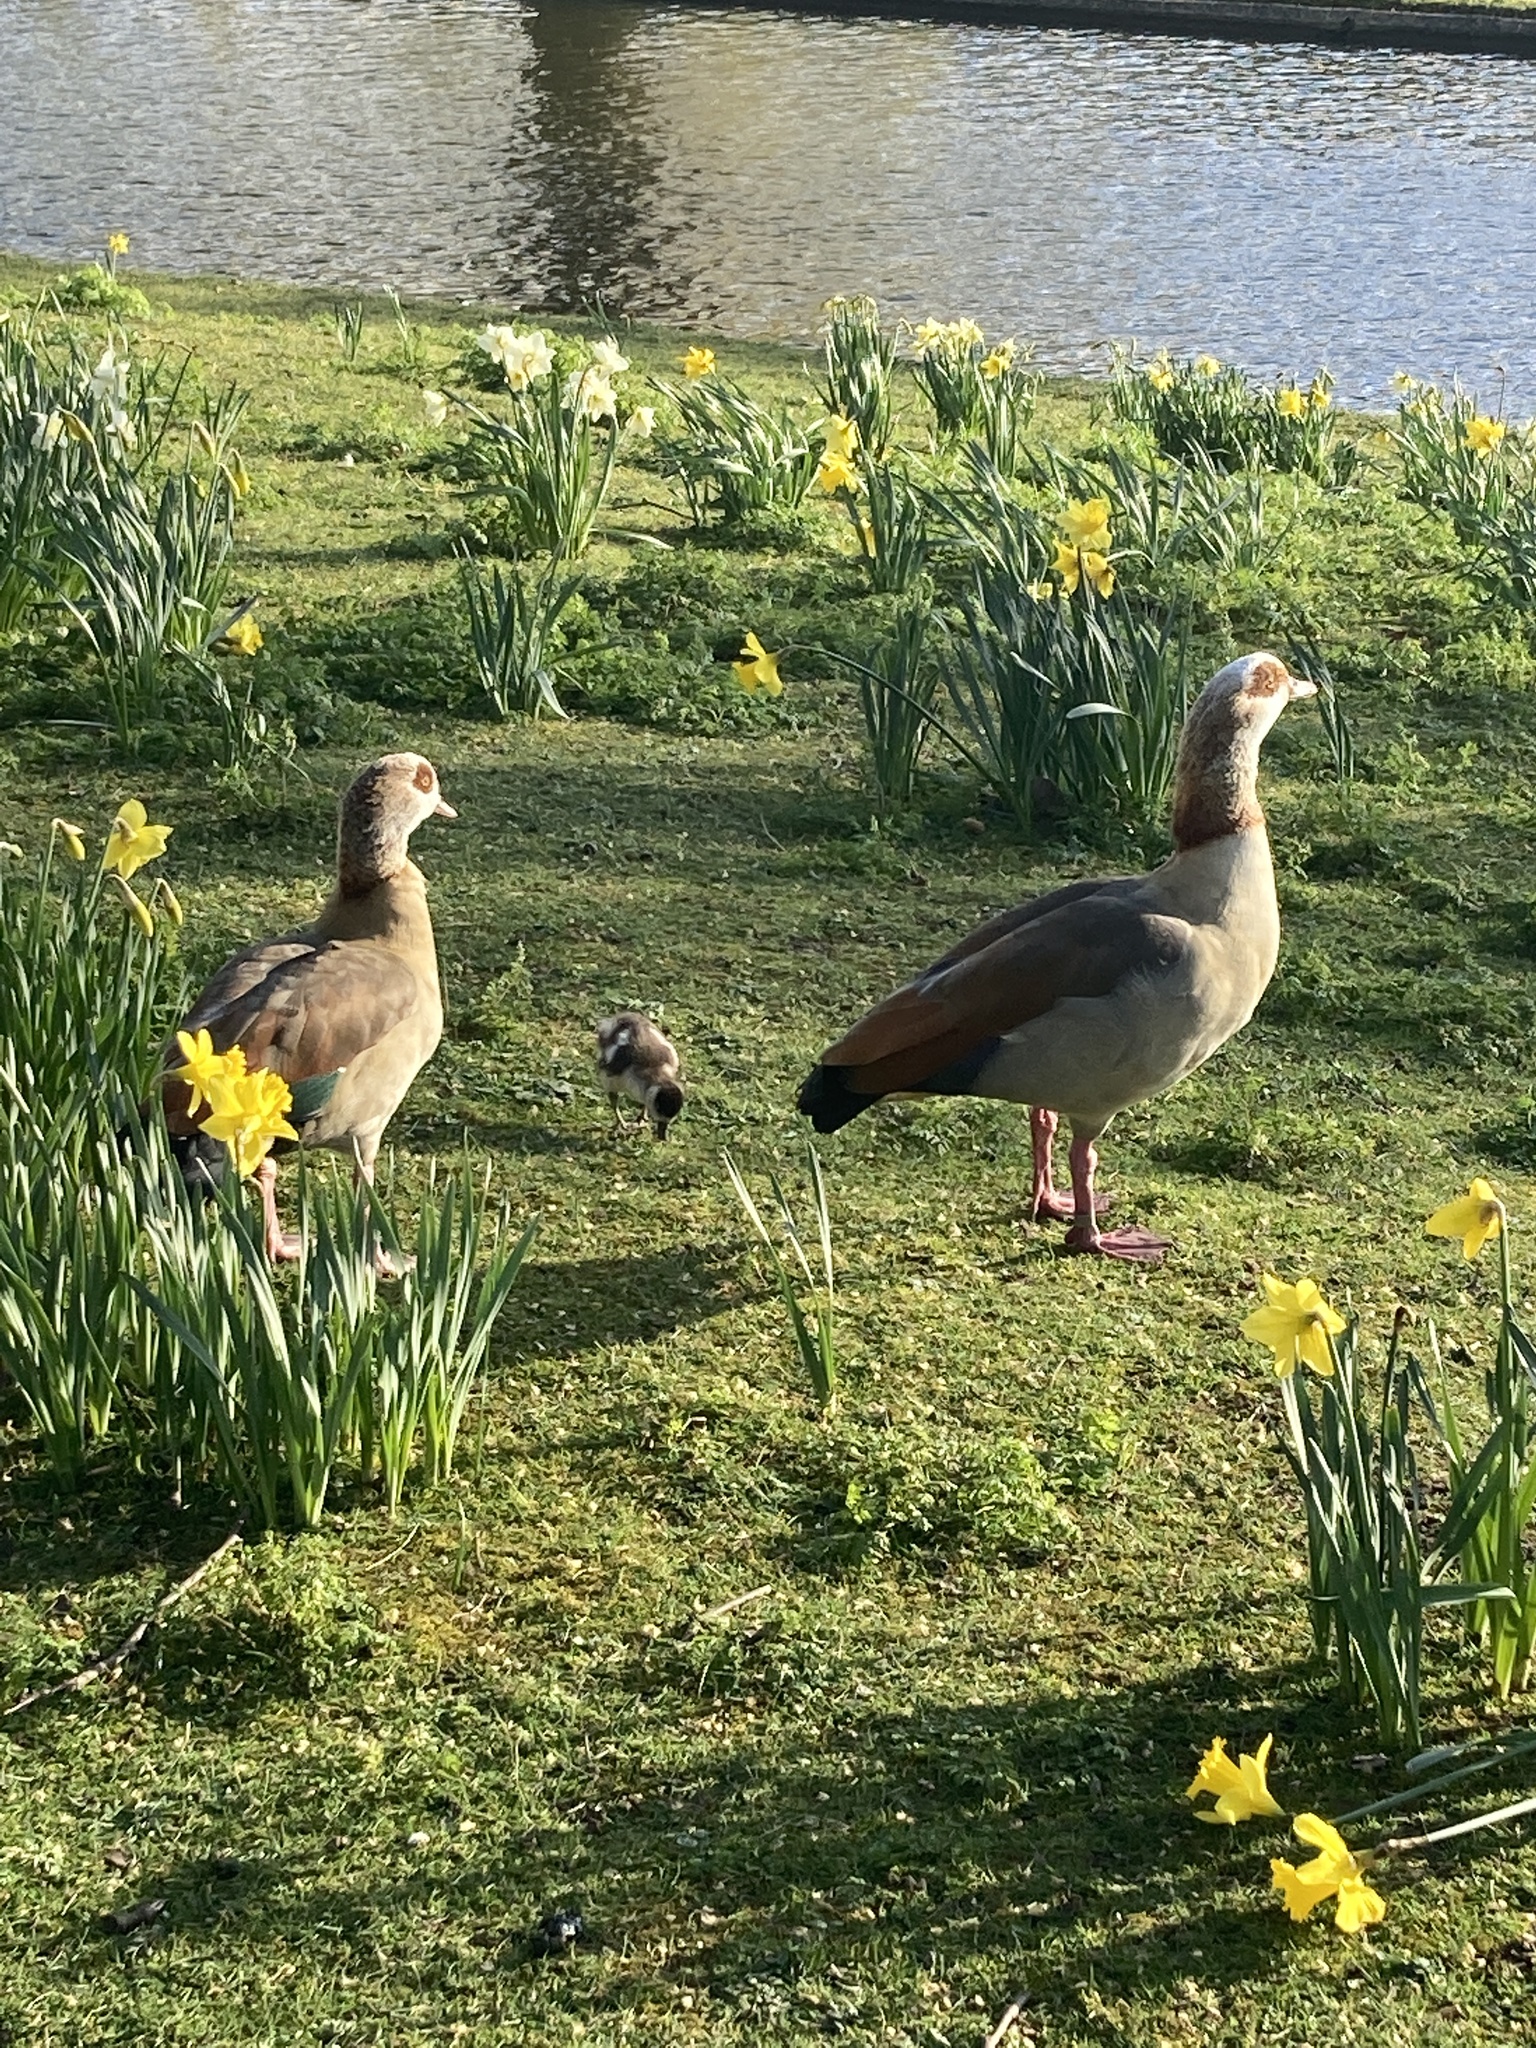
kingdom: Animalia
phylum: Chordata
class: Aves
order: Anseriformes
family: Anatidae
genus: Alopochen
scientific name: Alopochen aegyptiaca
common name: Egyptian goose
